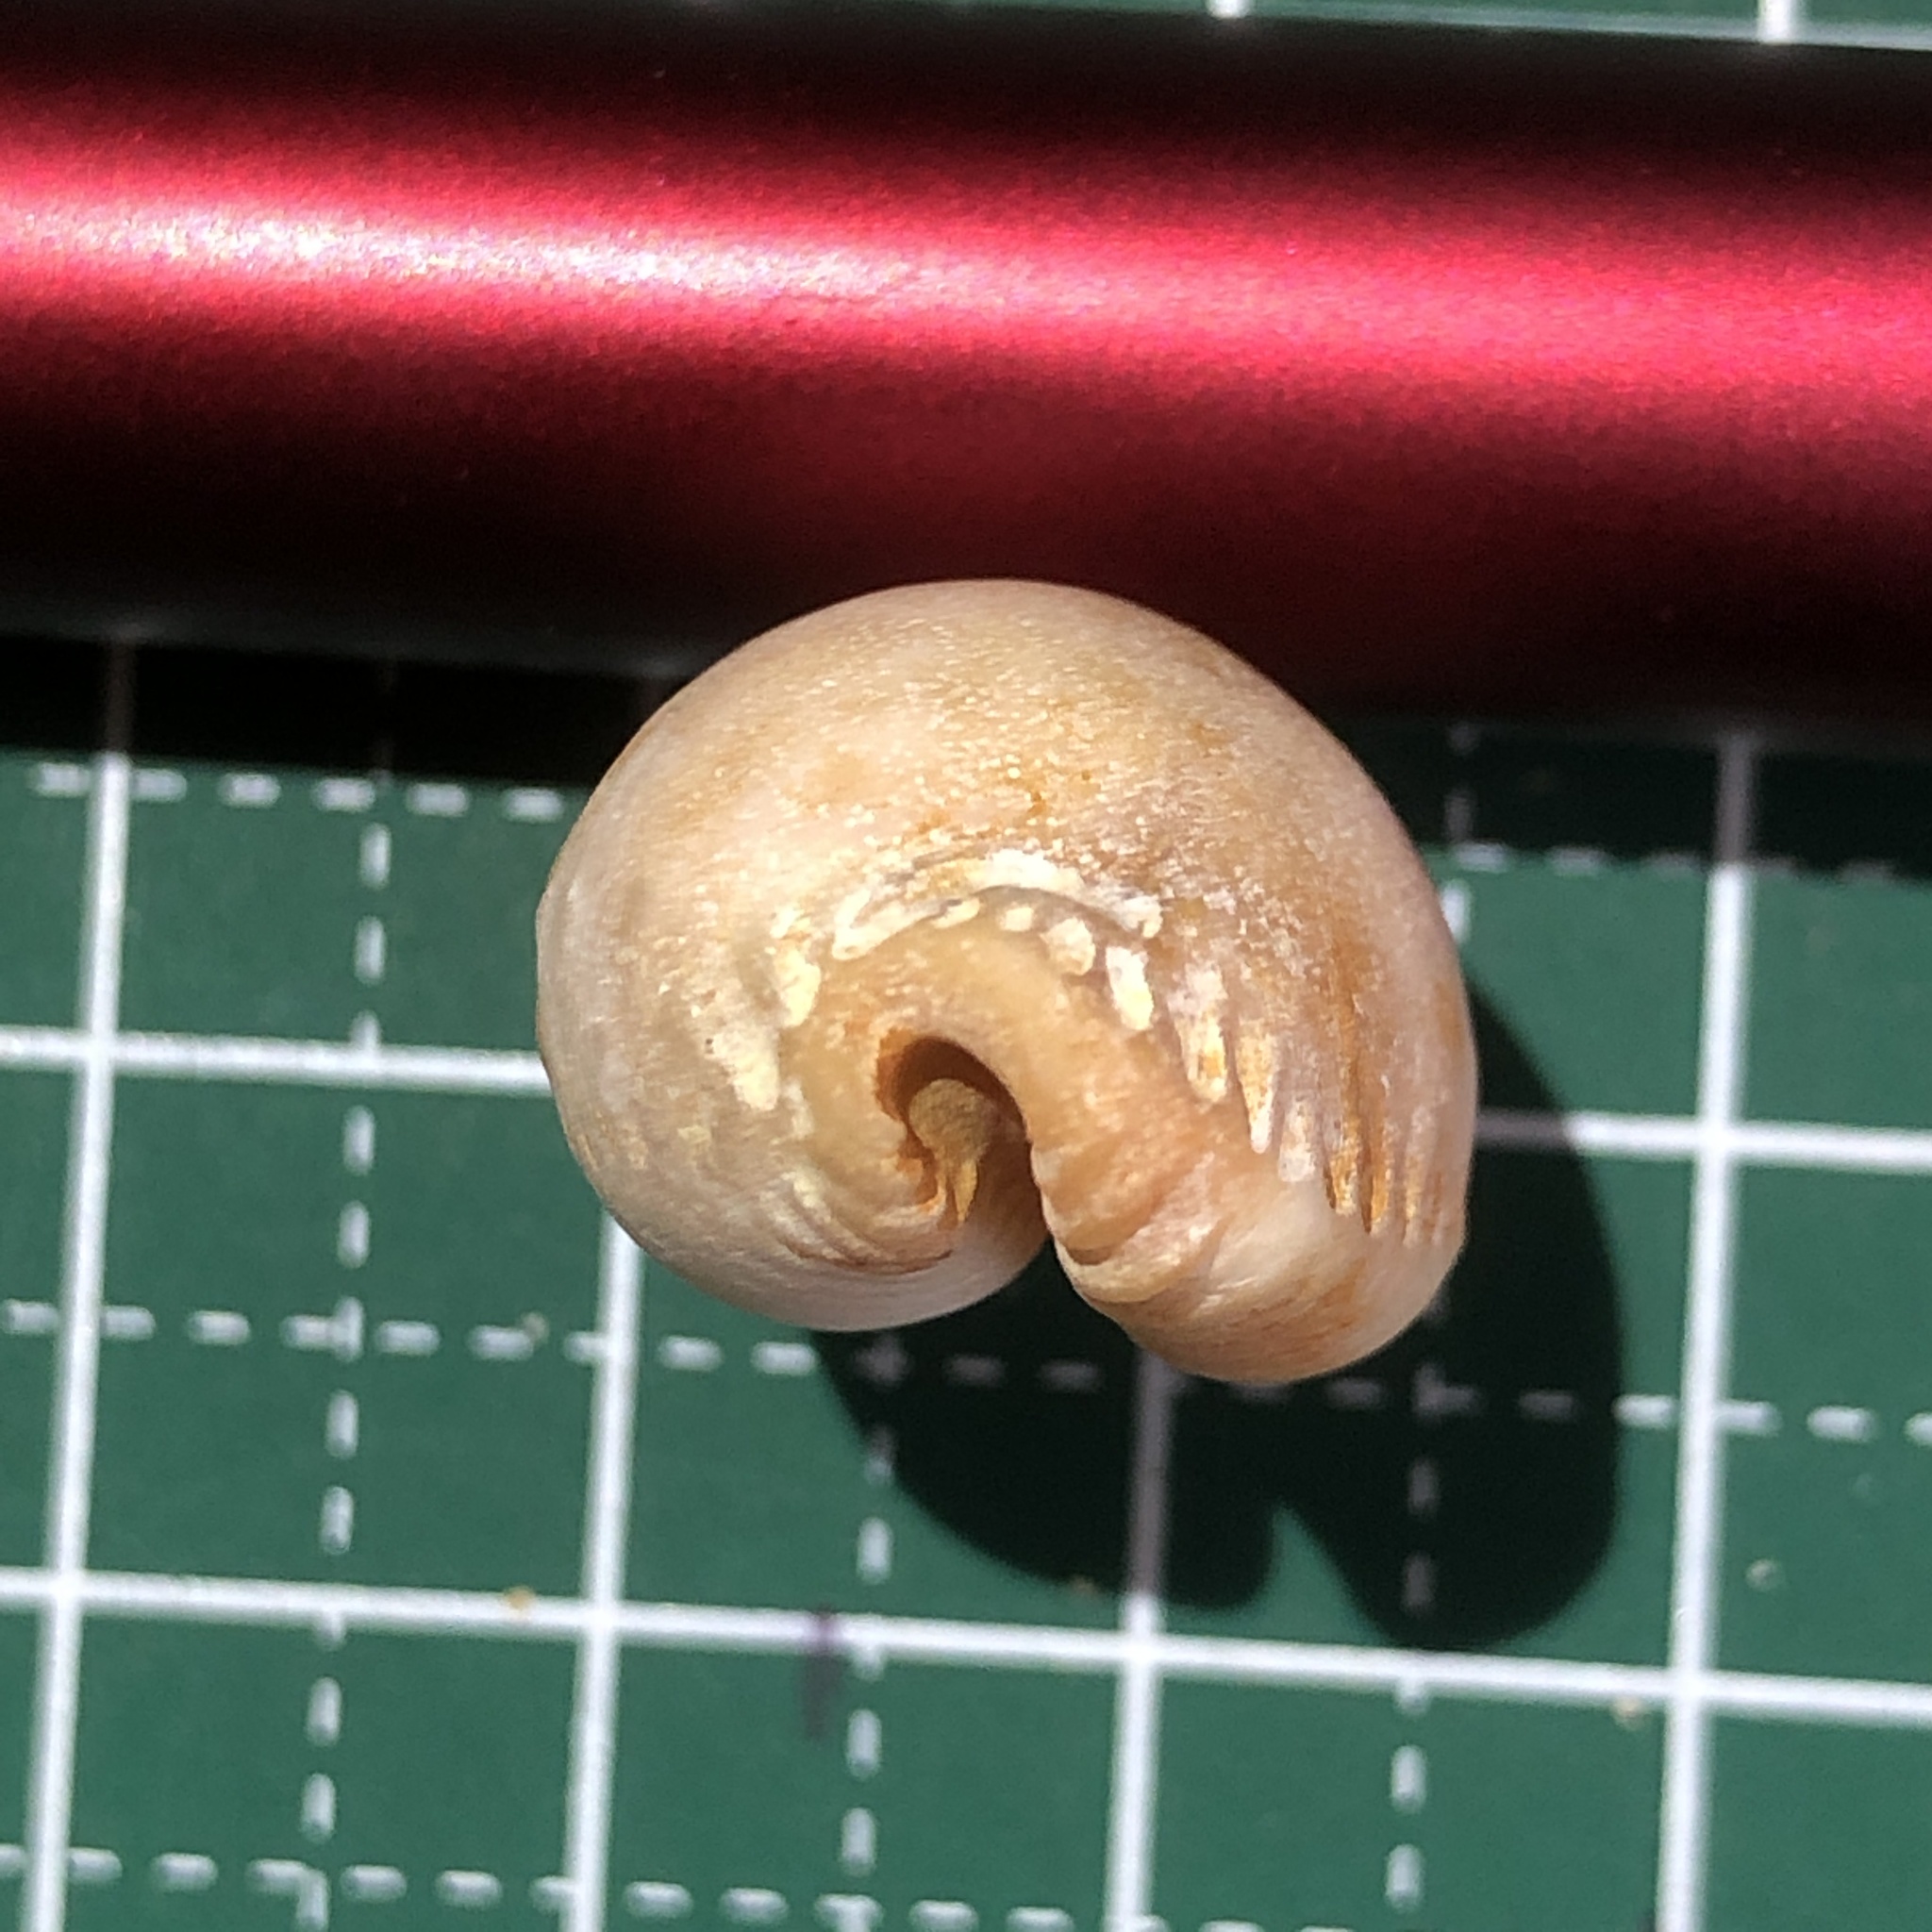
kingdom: Animalia
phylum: Mollusca
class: Gastropoda
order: Littorinimorpha
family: Cypraeidae
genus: Staphylaea
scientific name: Staphylaea limacina
